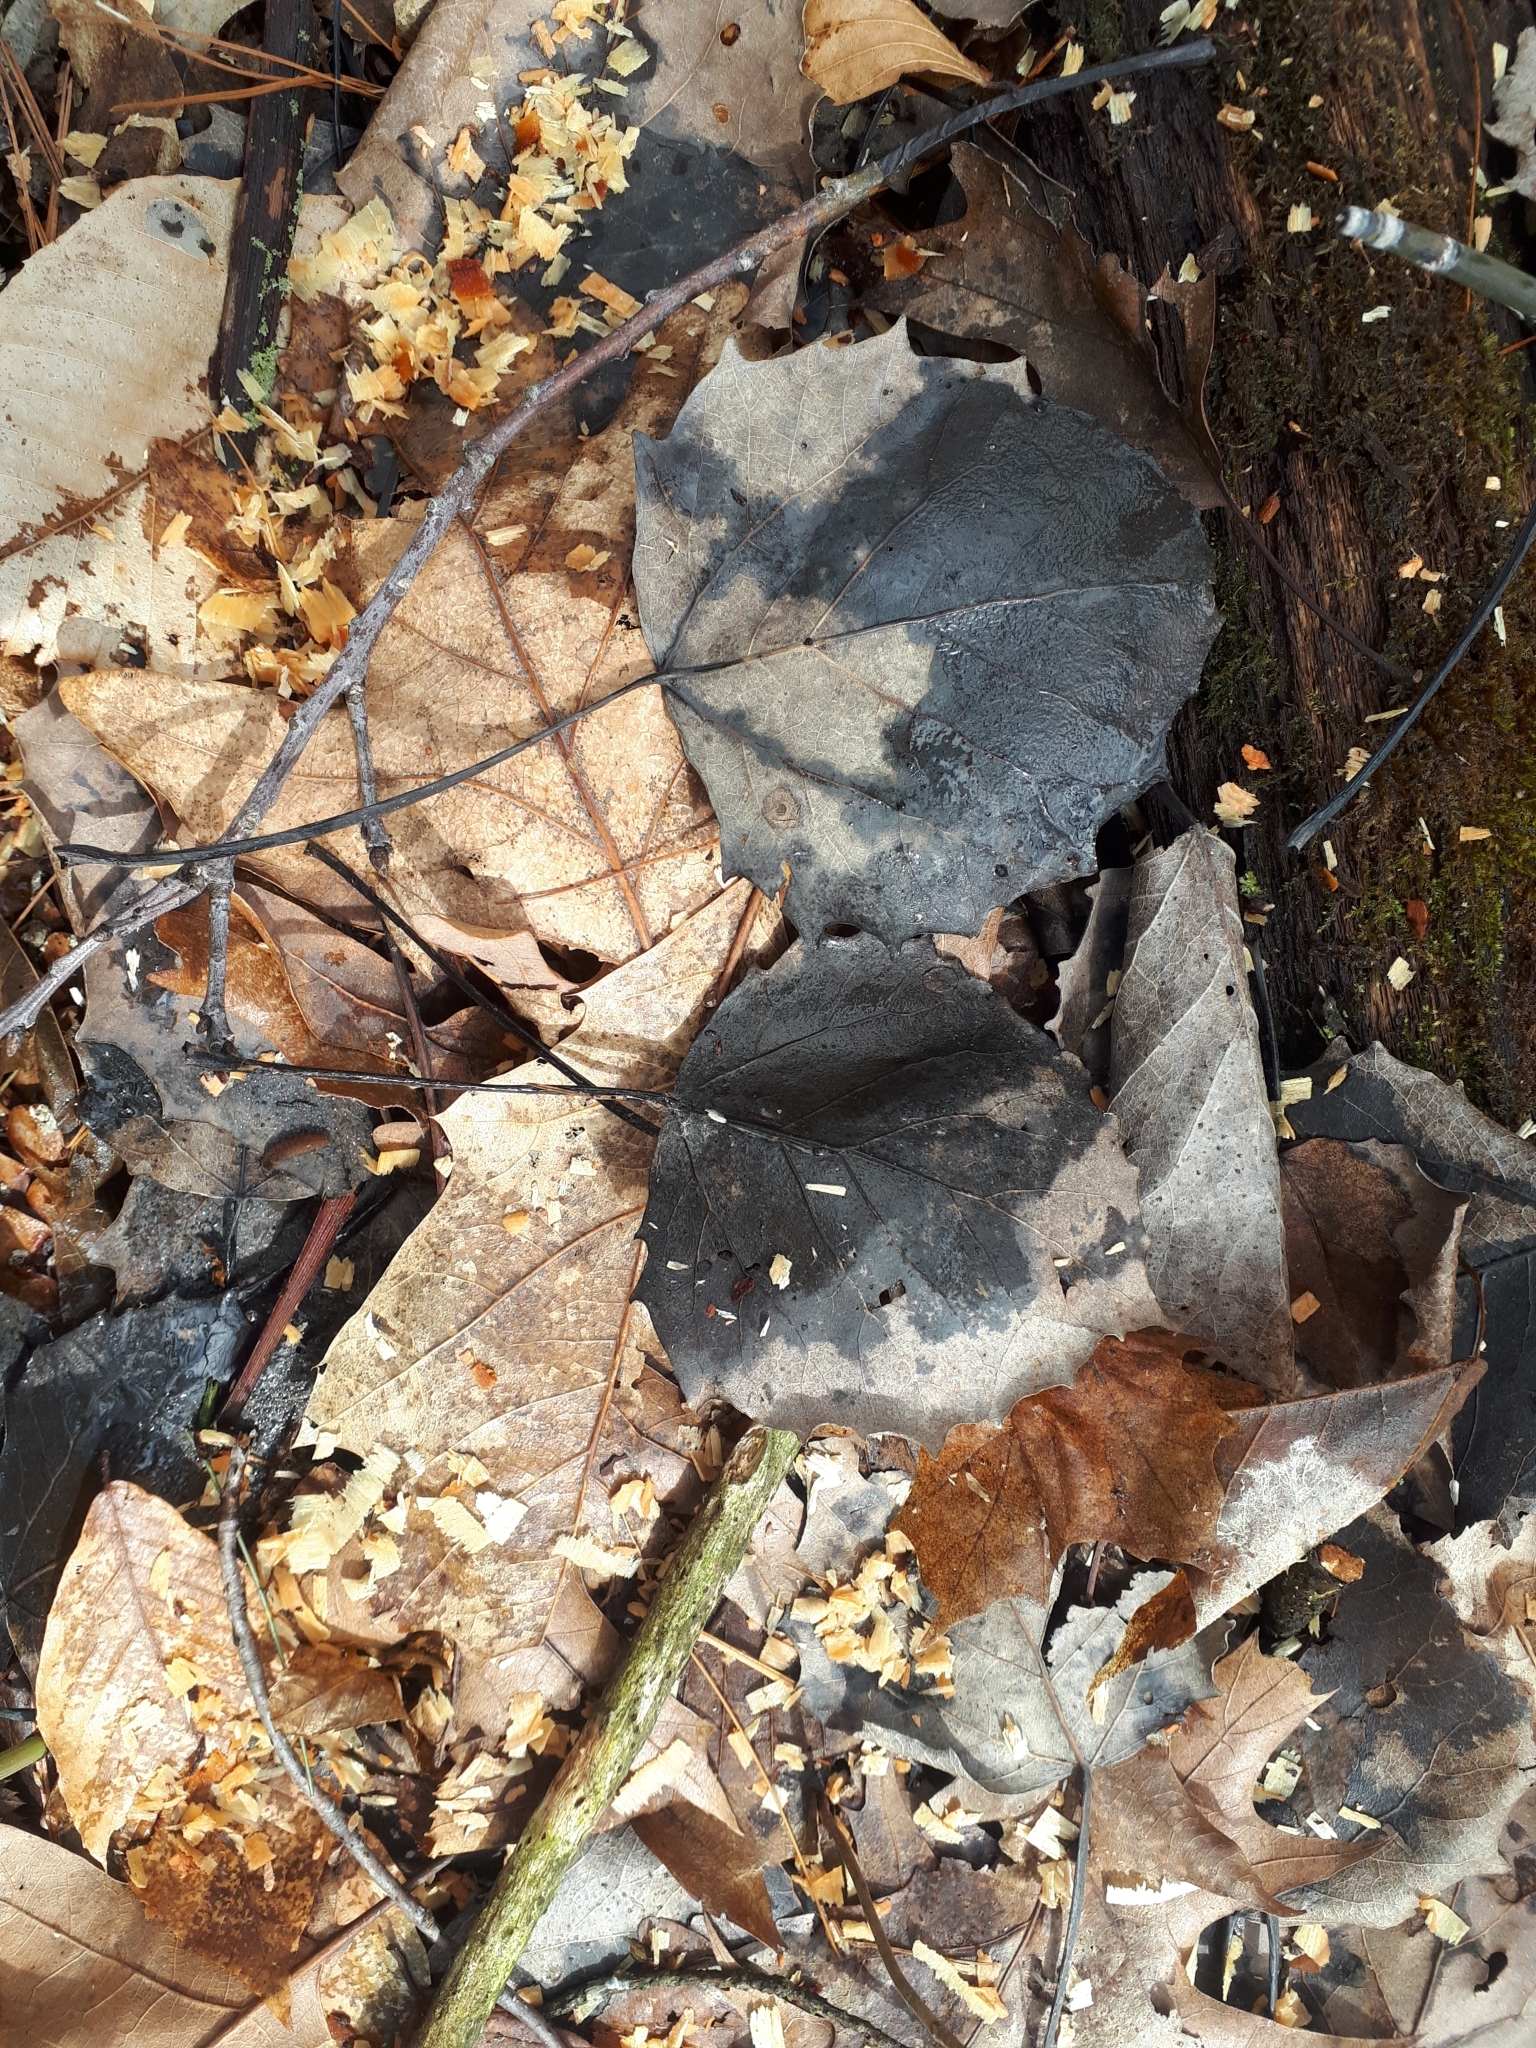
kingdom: Plantae
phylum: Tracheophyta
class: Magnoliopsida
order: Malpighiales
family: Salicaceae
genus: Populus
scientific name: Populus grandidentata
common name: Bigtooth aspen
